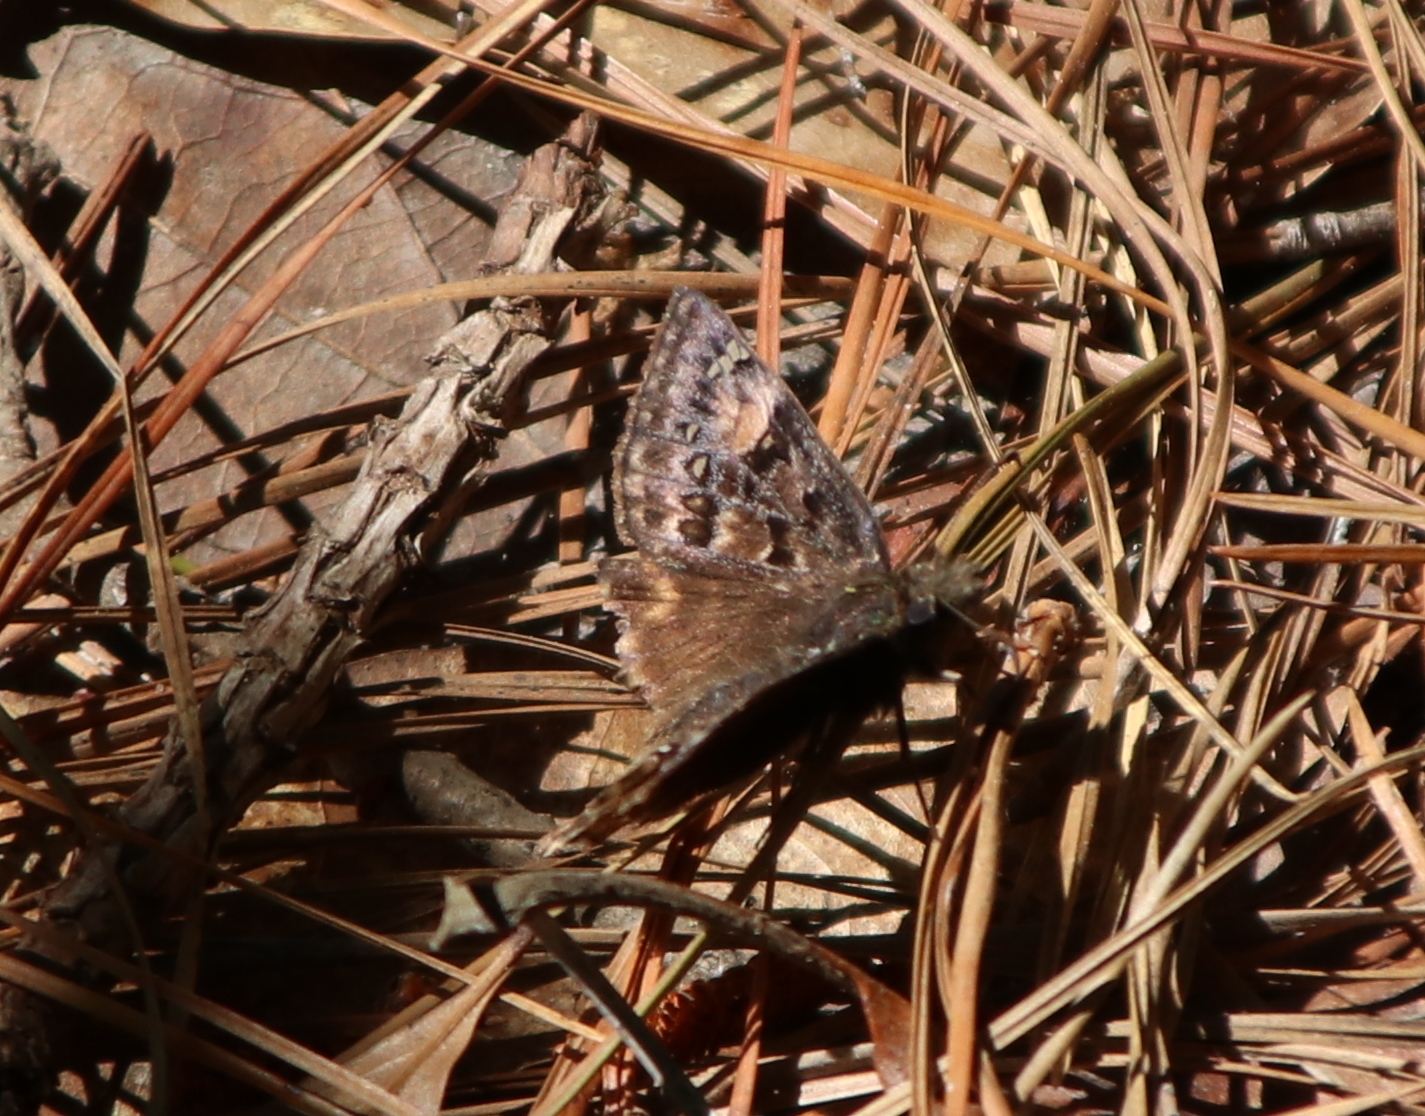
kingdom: Animalia
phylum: Arthropoda
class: Insecta
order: Lepidoptera
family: Hesperiidae
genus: Erynnis
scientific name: Erynnis juvenalis
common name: Juvenal's duskywing
